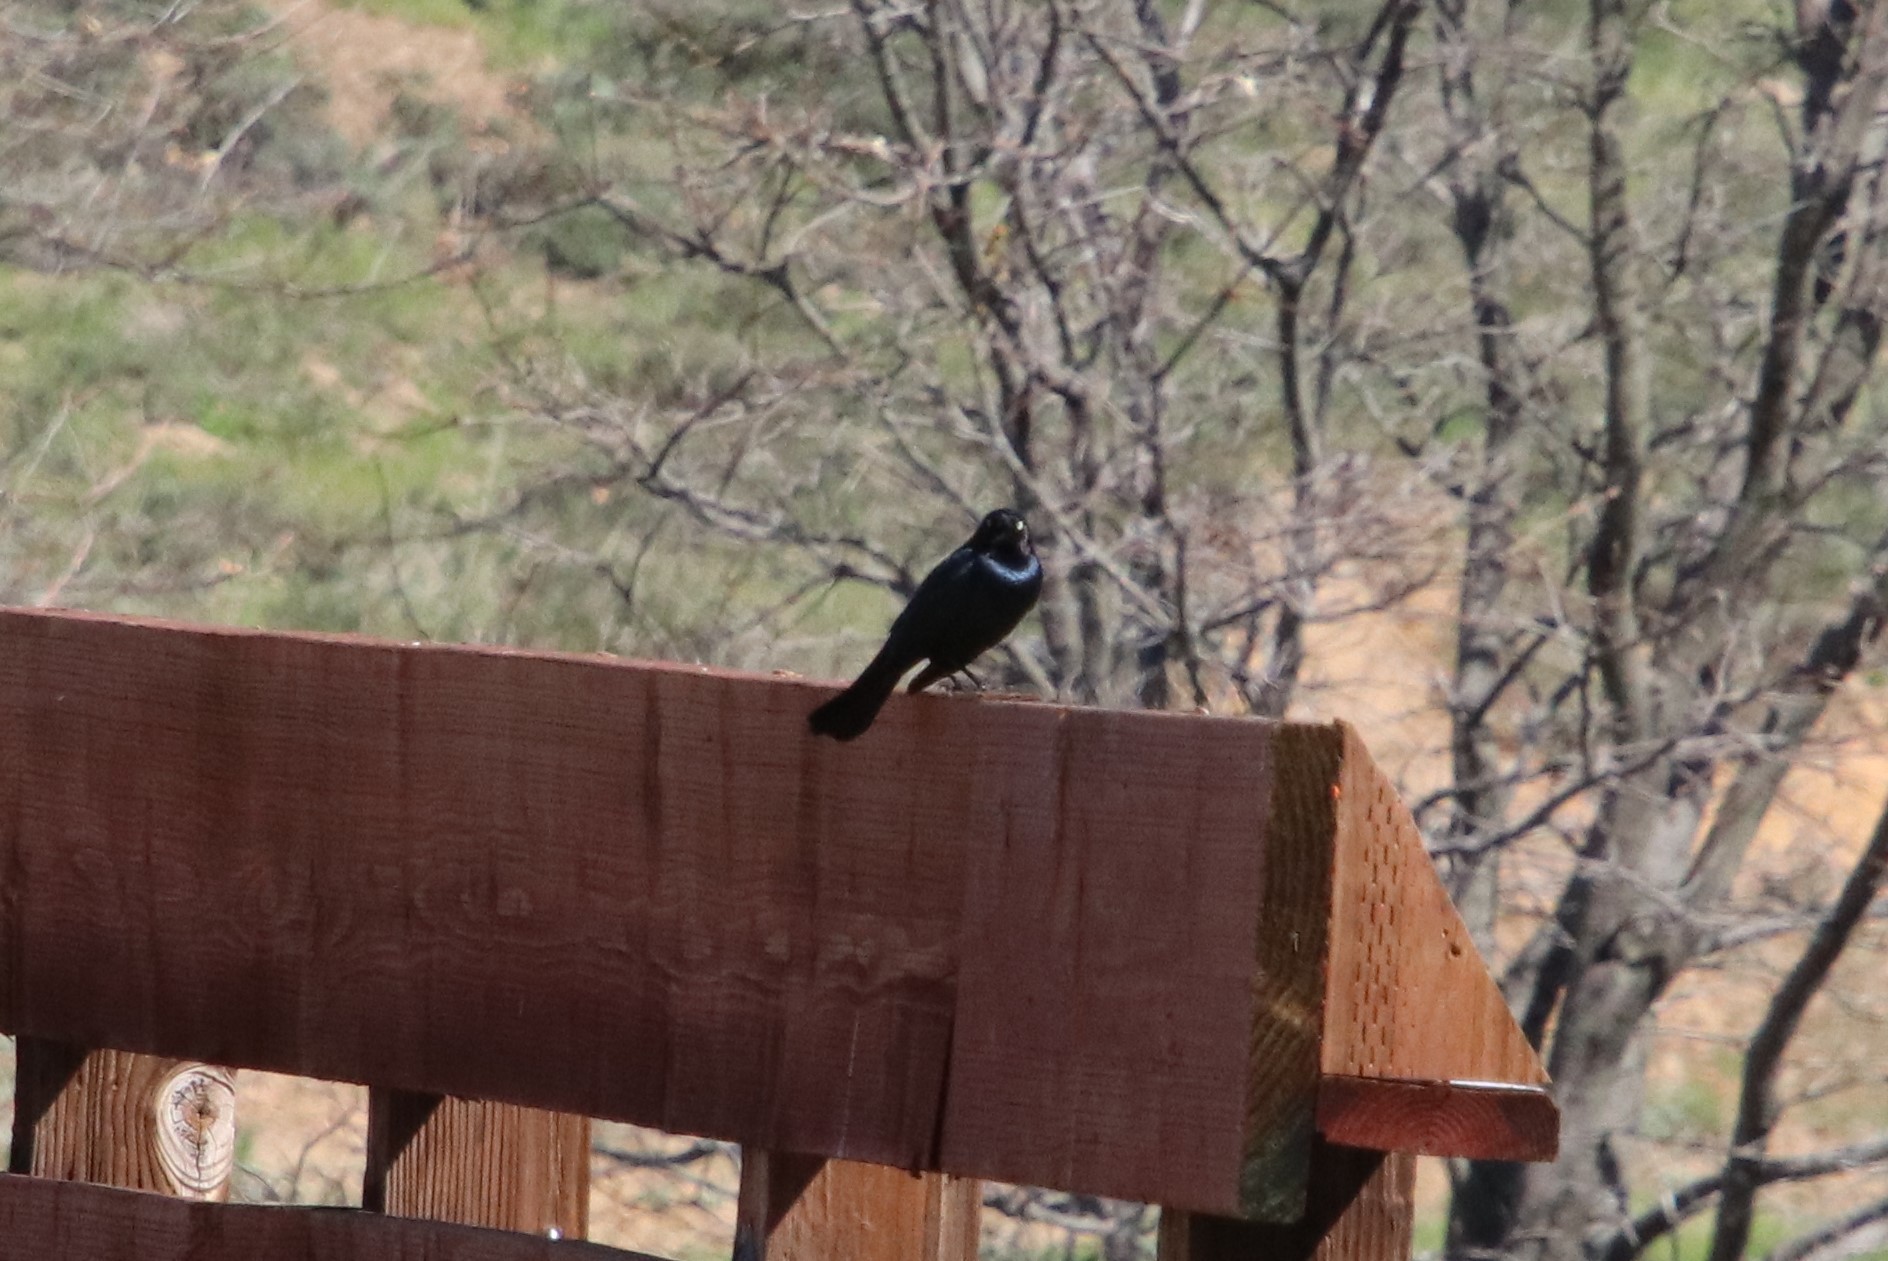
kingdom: Animalia
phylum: Chordata
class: Aves
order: Passeriformes
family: Icteridae
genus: Euphagus
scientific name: Euphagus cyanocephalus
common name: Brewer's blackbird
